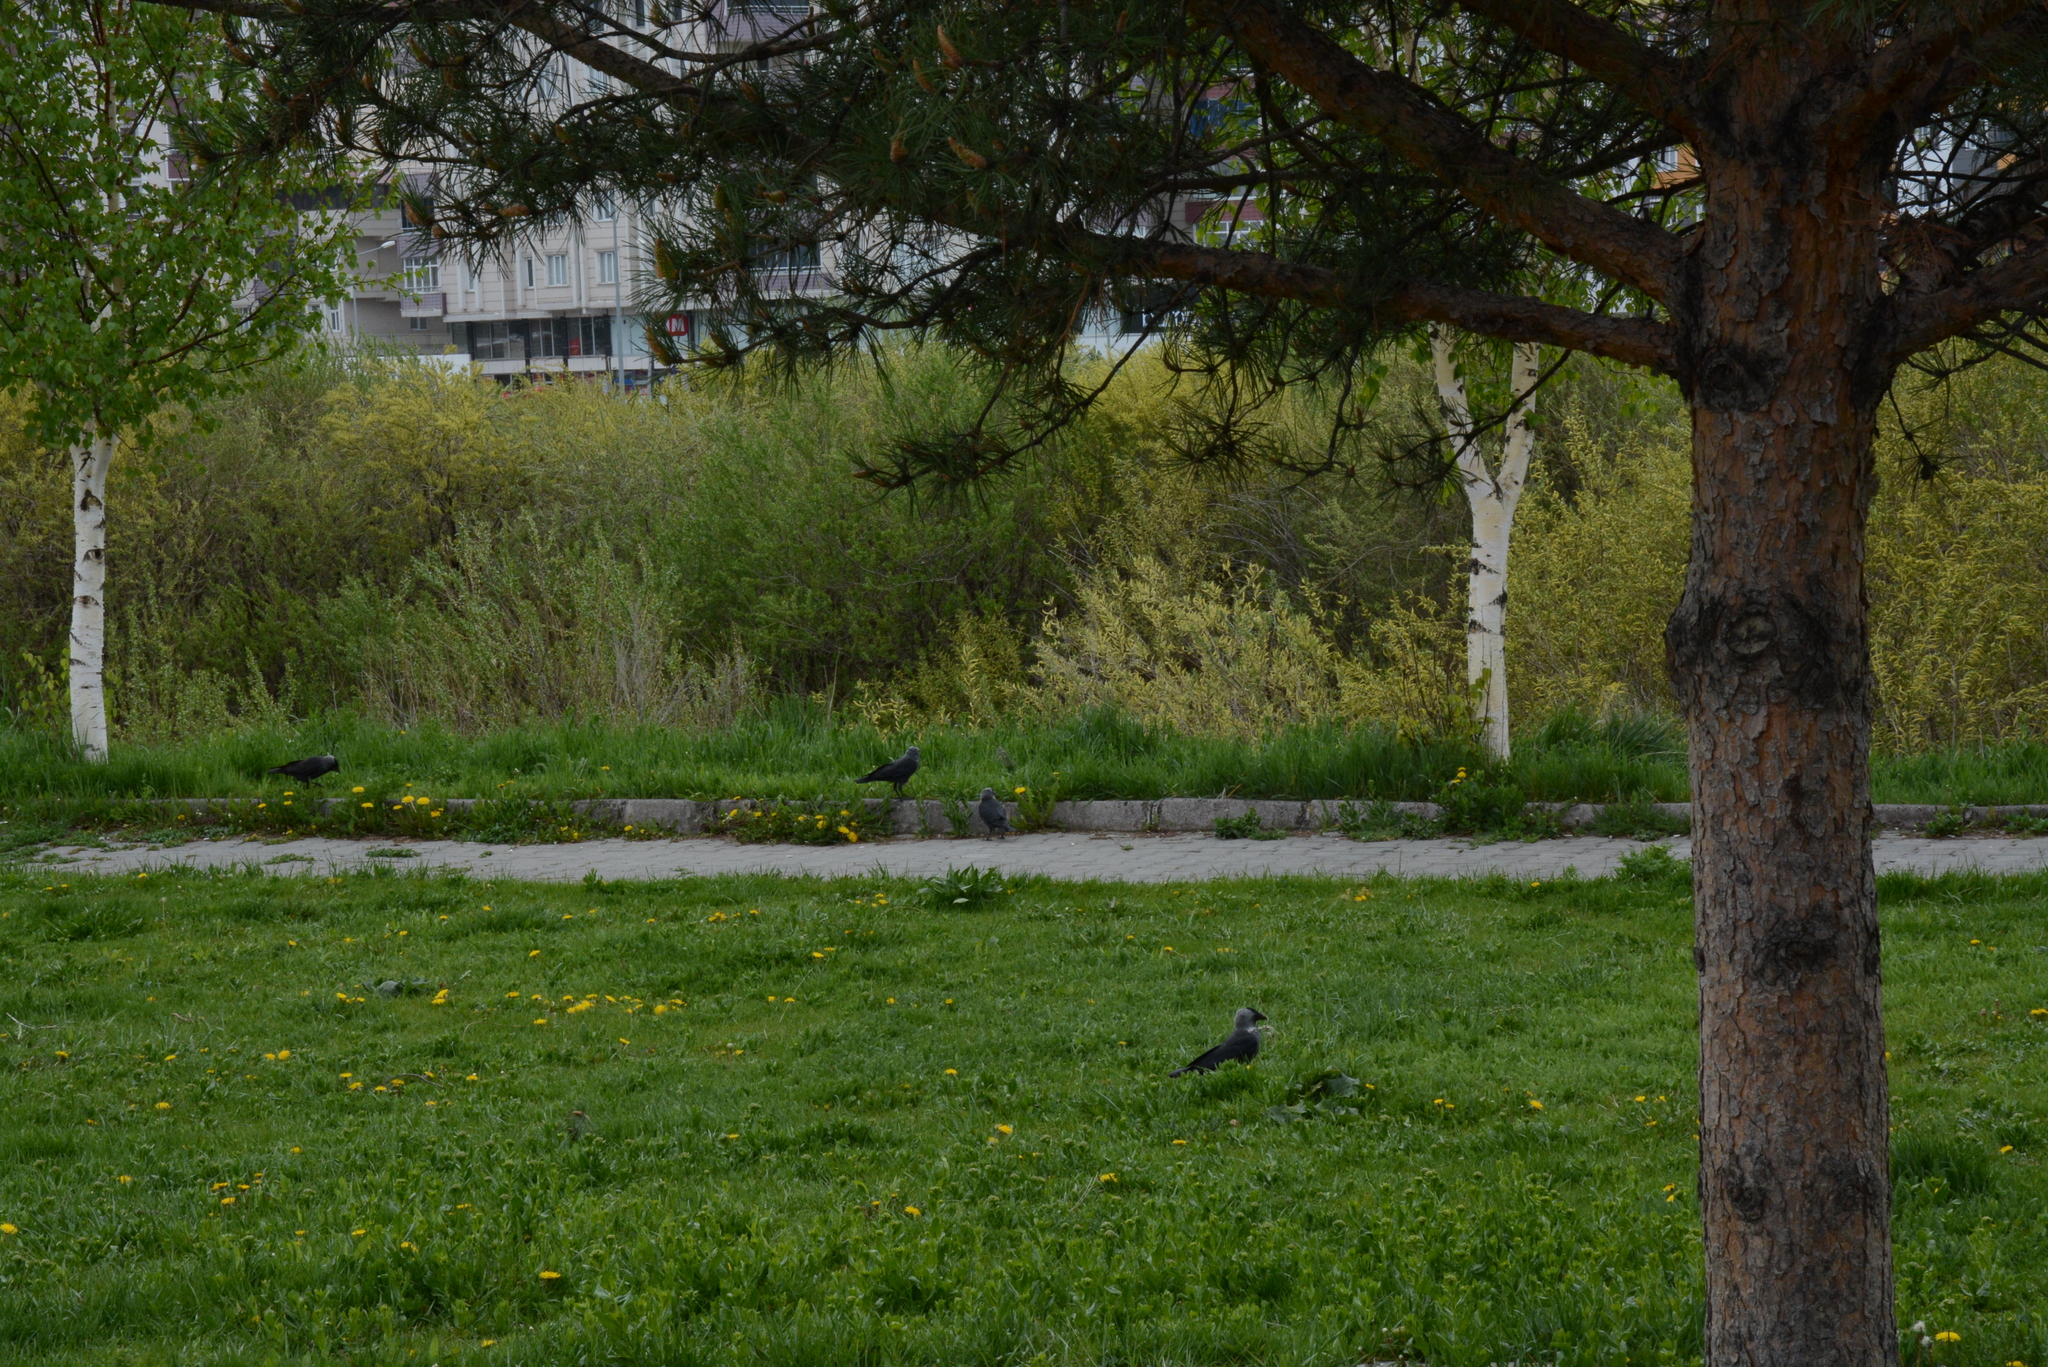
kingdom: Animalia
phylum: Chordata
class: Aves
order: Passeriformes
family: Corvidae
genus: Coloeus
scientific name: Coloeus monedula
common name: Western jackdaw
